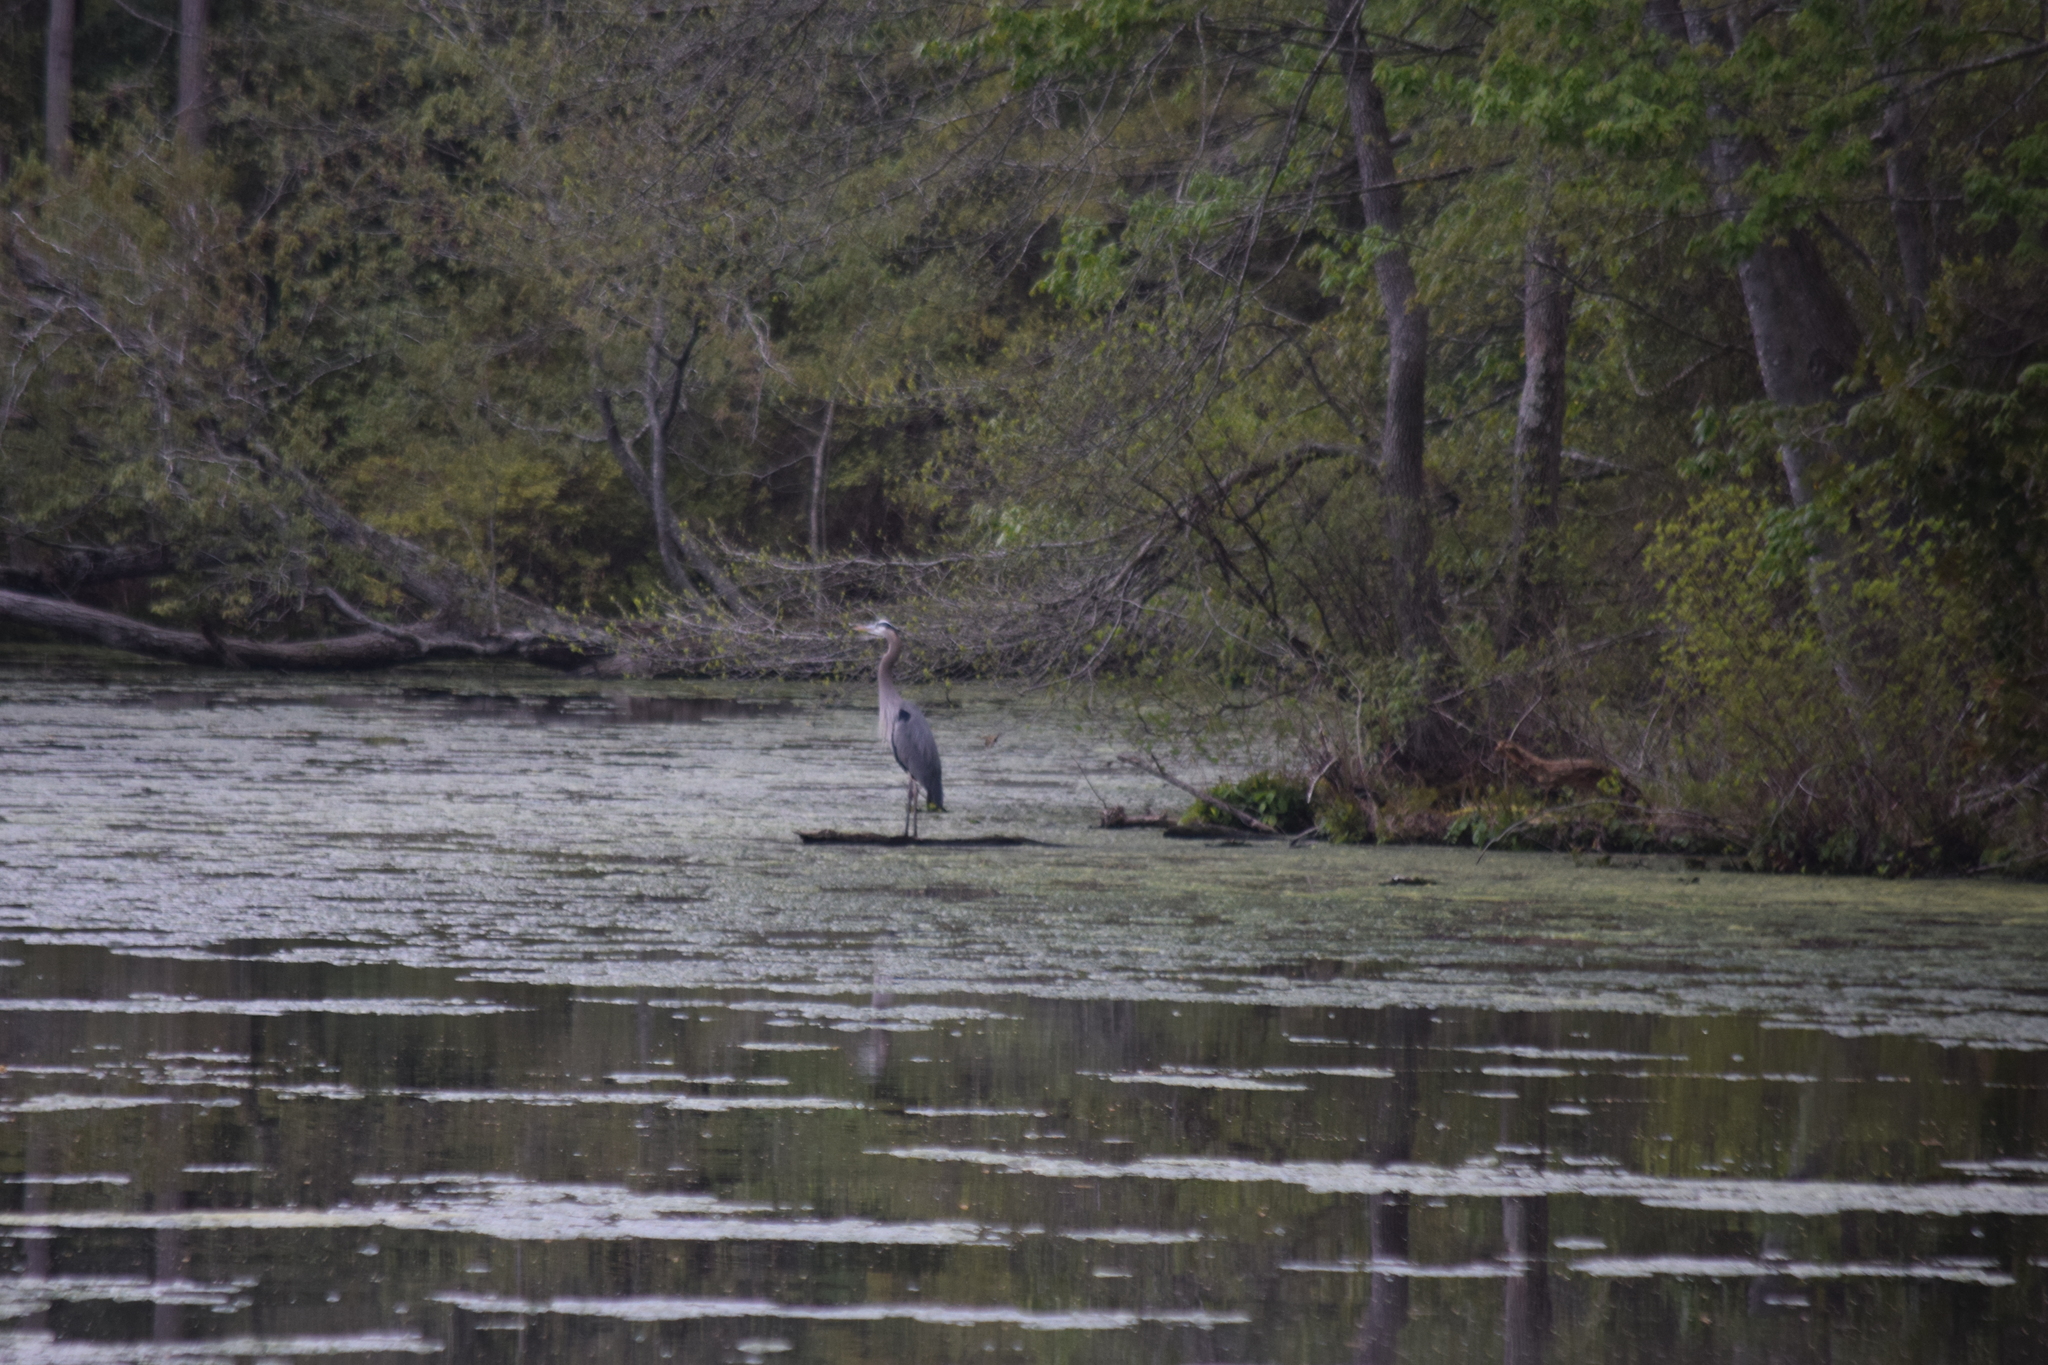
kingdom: Animalia
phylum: Chordata
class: Aves
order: Pelecaniformes
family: Ardeidae
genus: Ardea
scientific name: Ardea herodias
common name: Great blue heron
